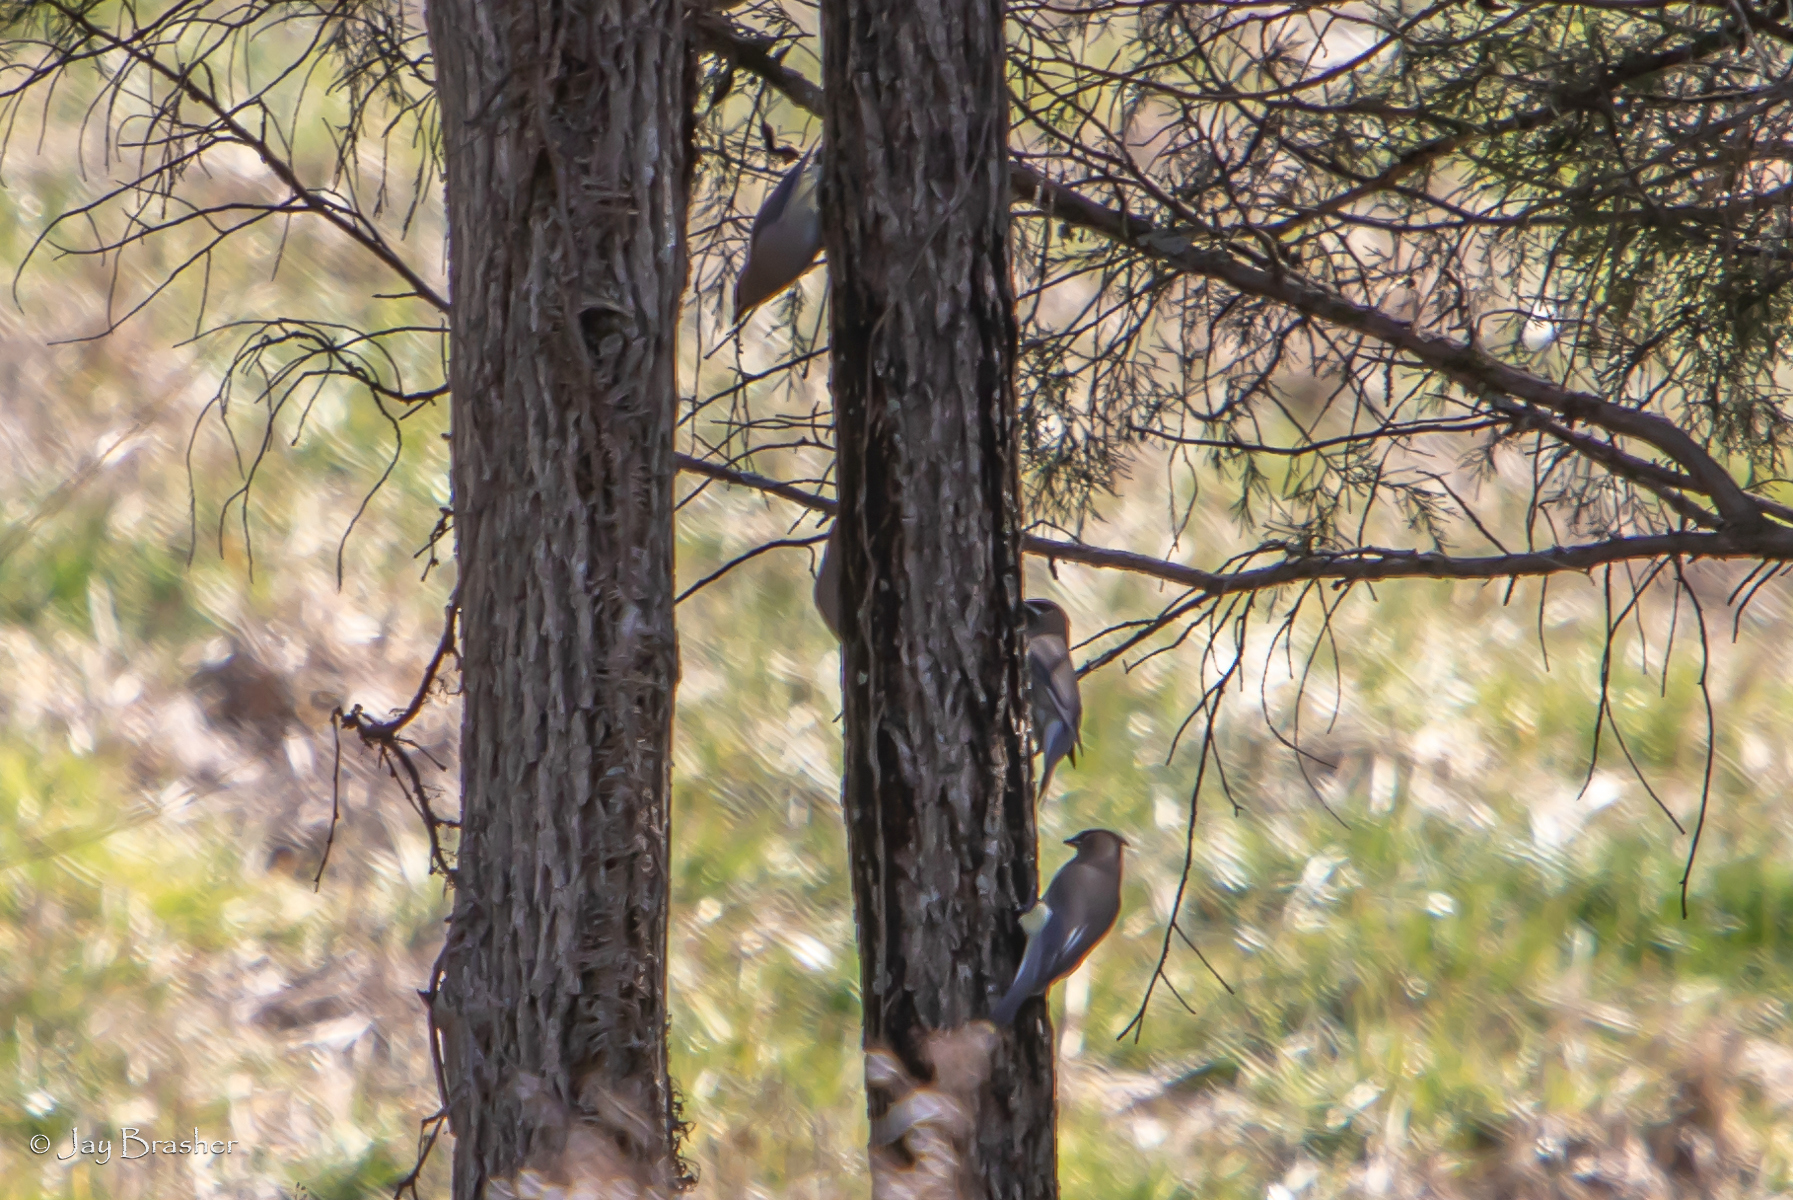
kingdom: Animalia
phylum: Chordata
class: Aves
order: Passeriformes
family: Bombycillidae
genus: Bombycilla
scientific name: Bombycilla cedrorum
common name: Cedar waxwing
